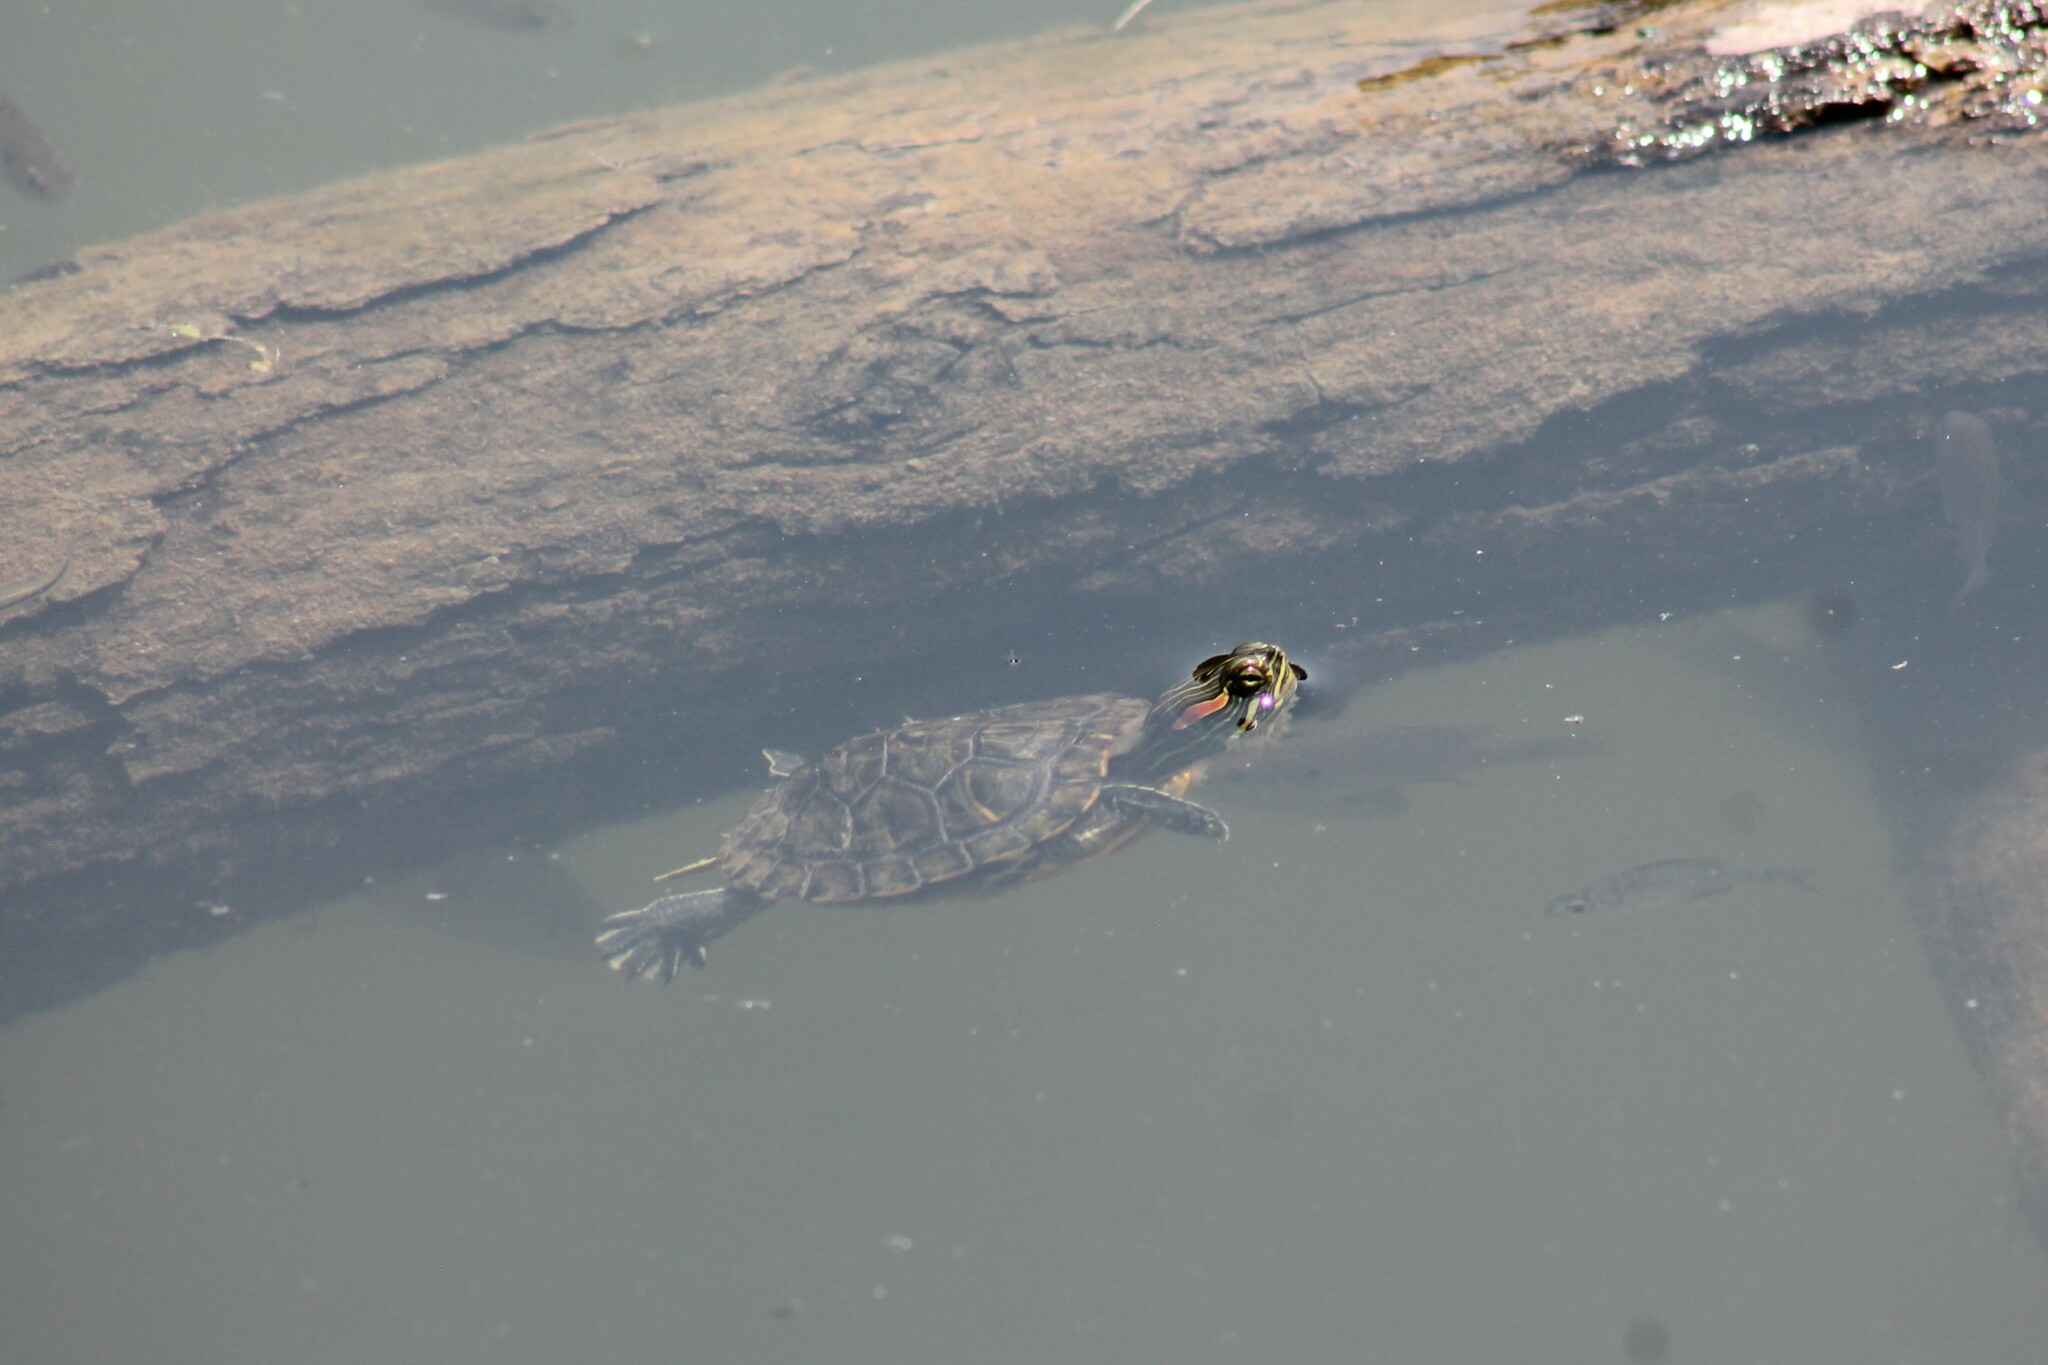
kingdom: Animalia
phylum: Chordata
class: Testudines
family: Emydidae
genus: Trachemys
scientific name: Trachemys scripta
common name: Slider
